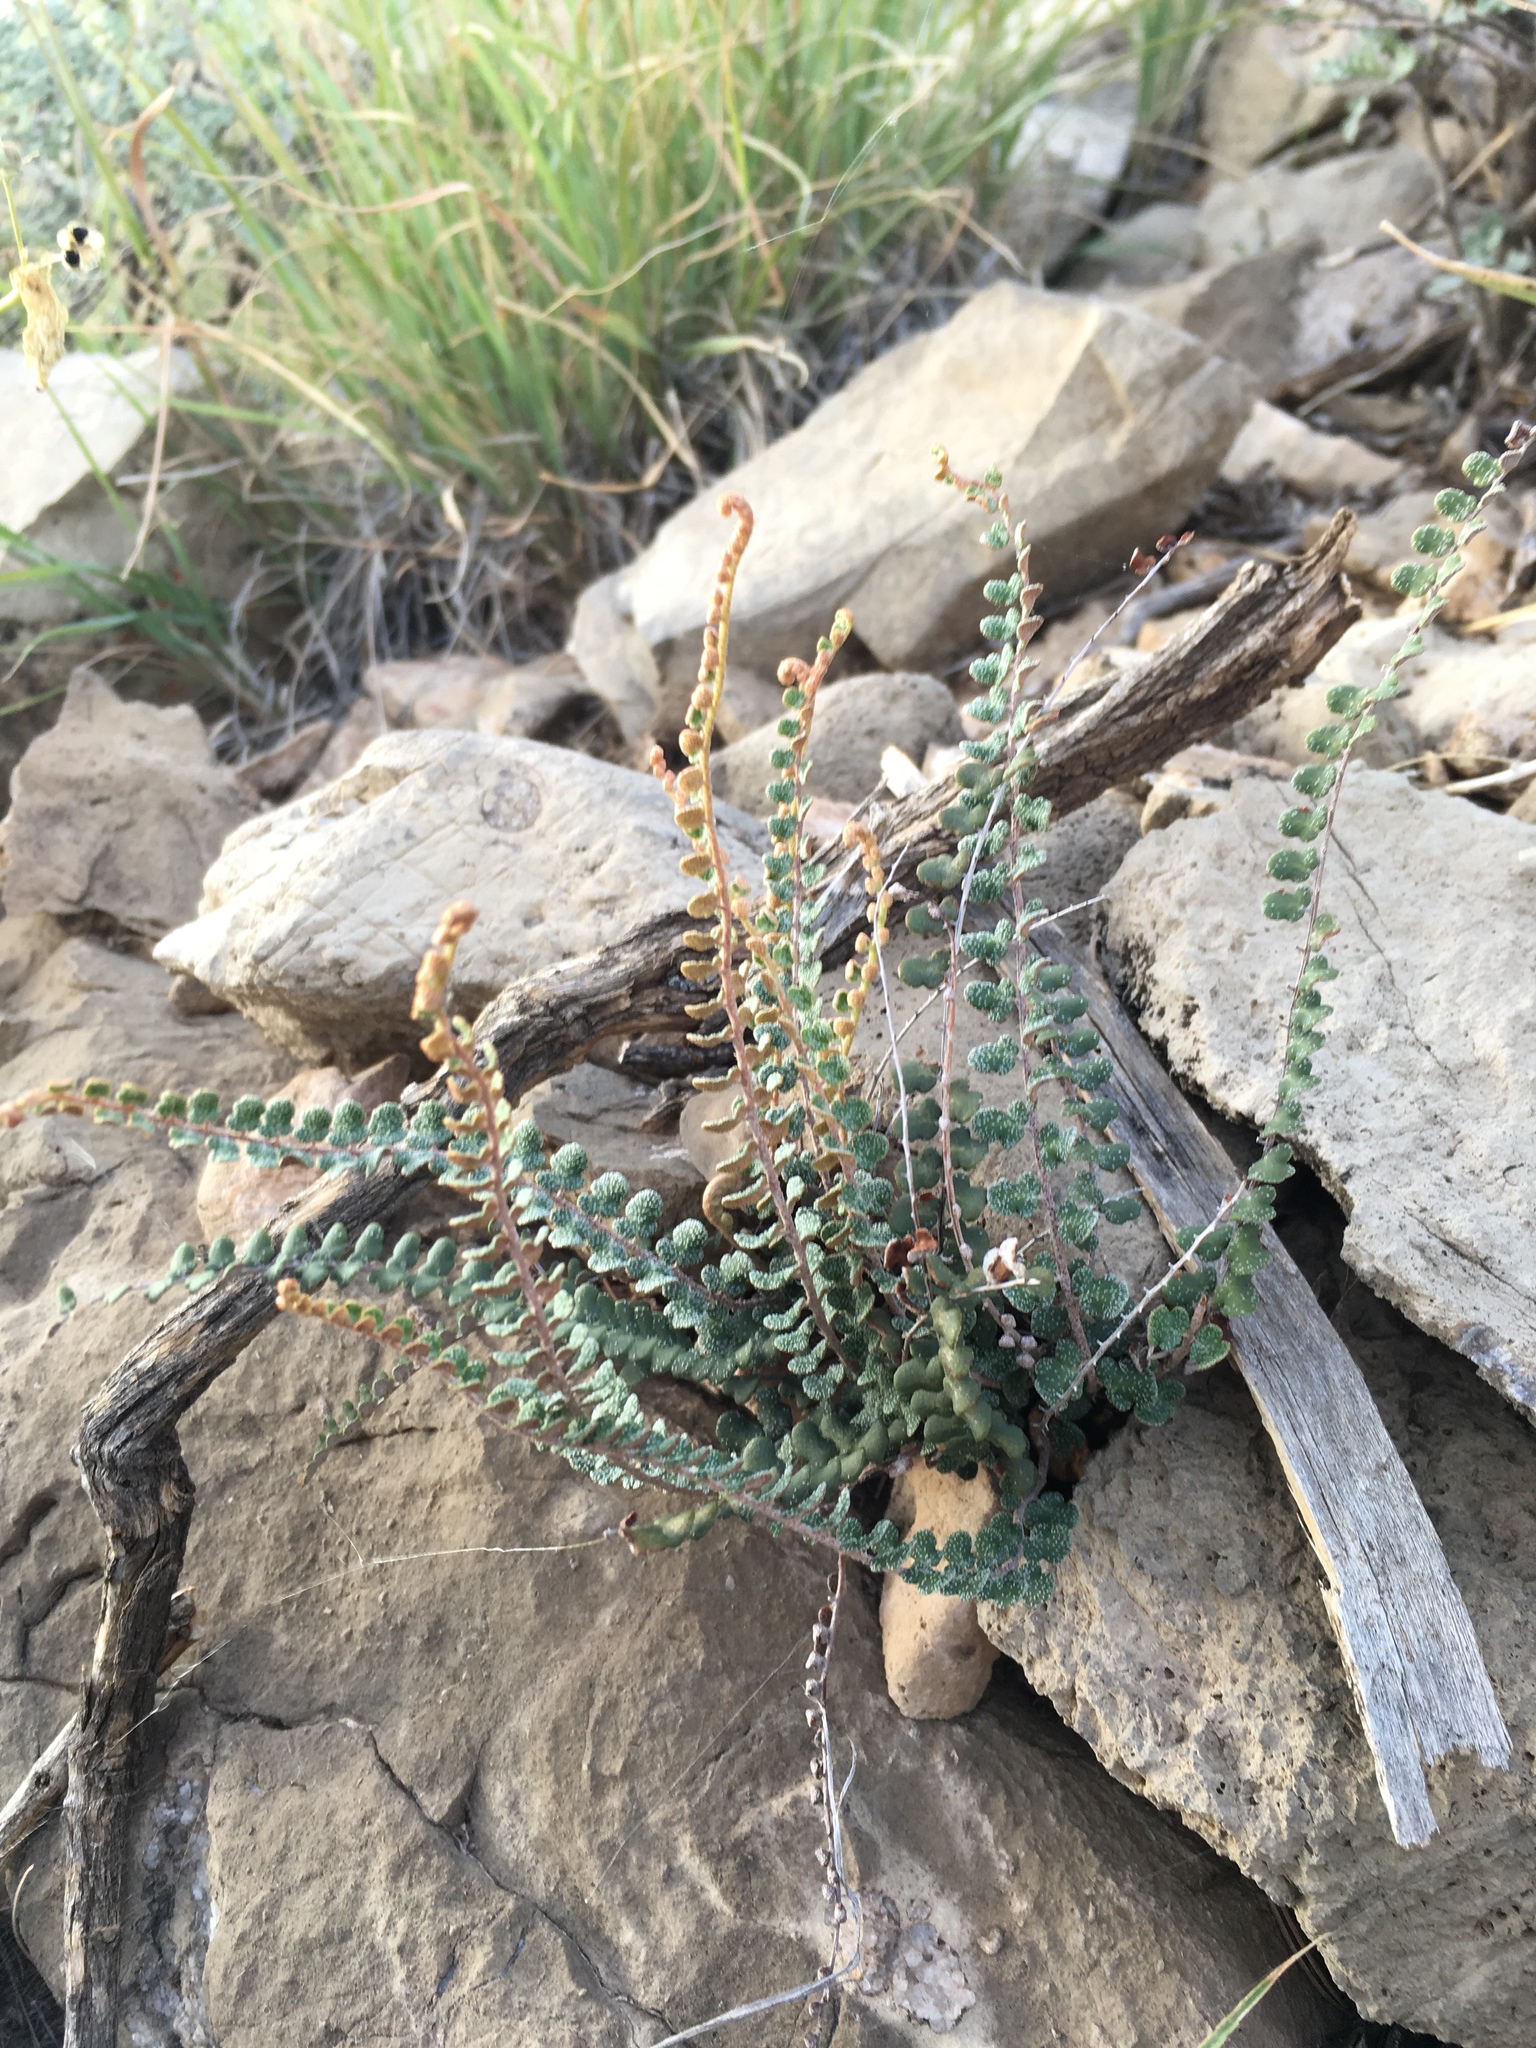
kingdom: Plantae
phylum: Tracheophyta
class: Polypodiopsida
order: Polypodiales
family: Pteridaceae
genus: Astrolepis
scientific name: Astrolepis cochisensis
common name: Scaly cloak fern
